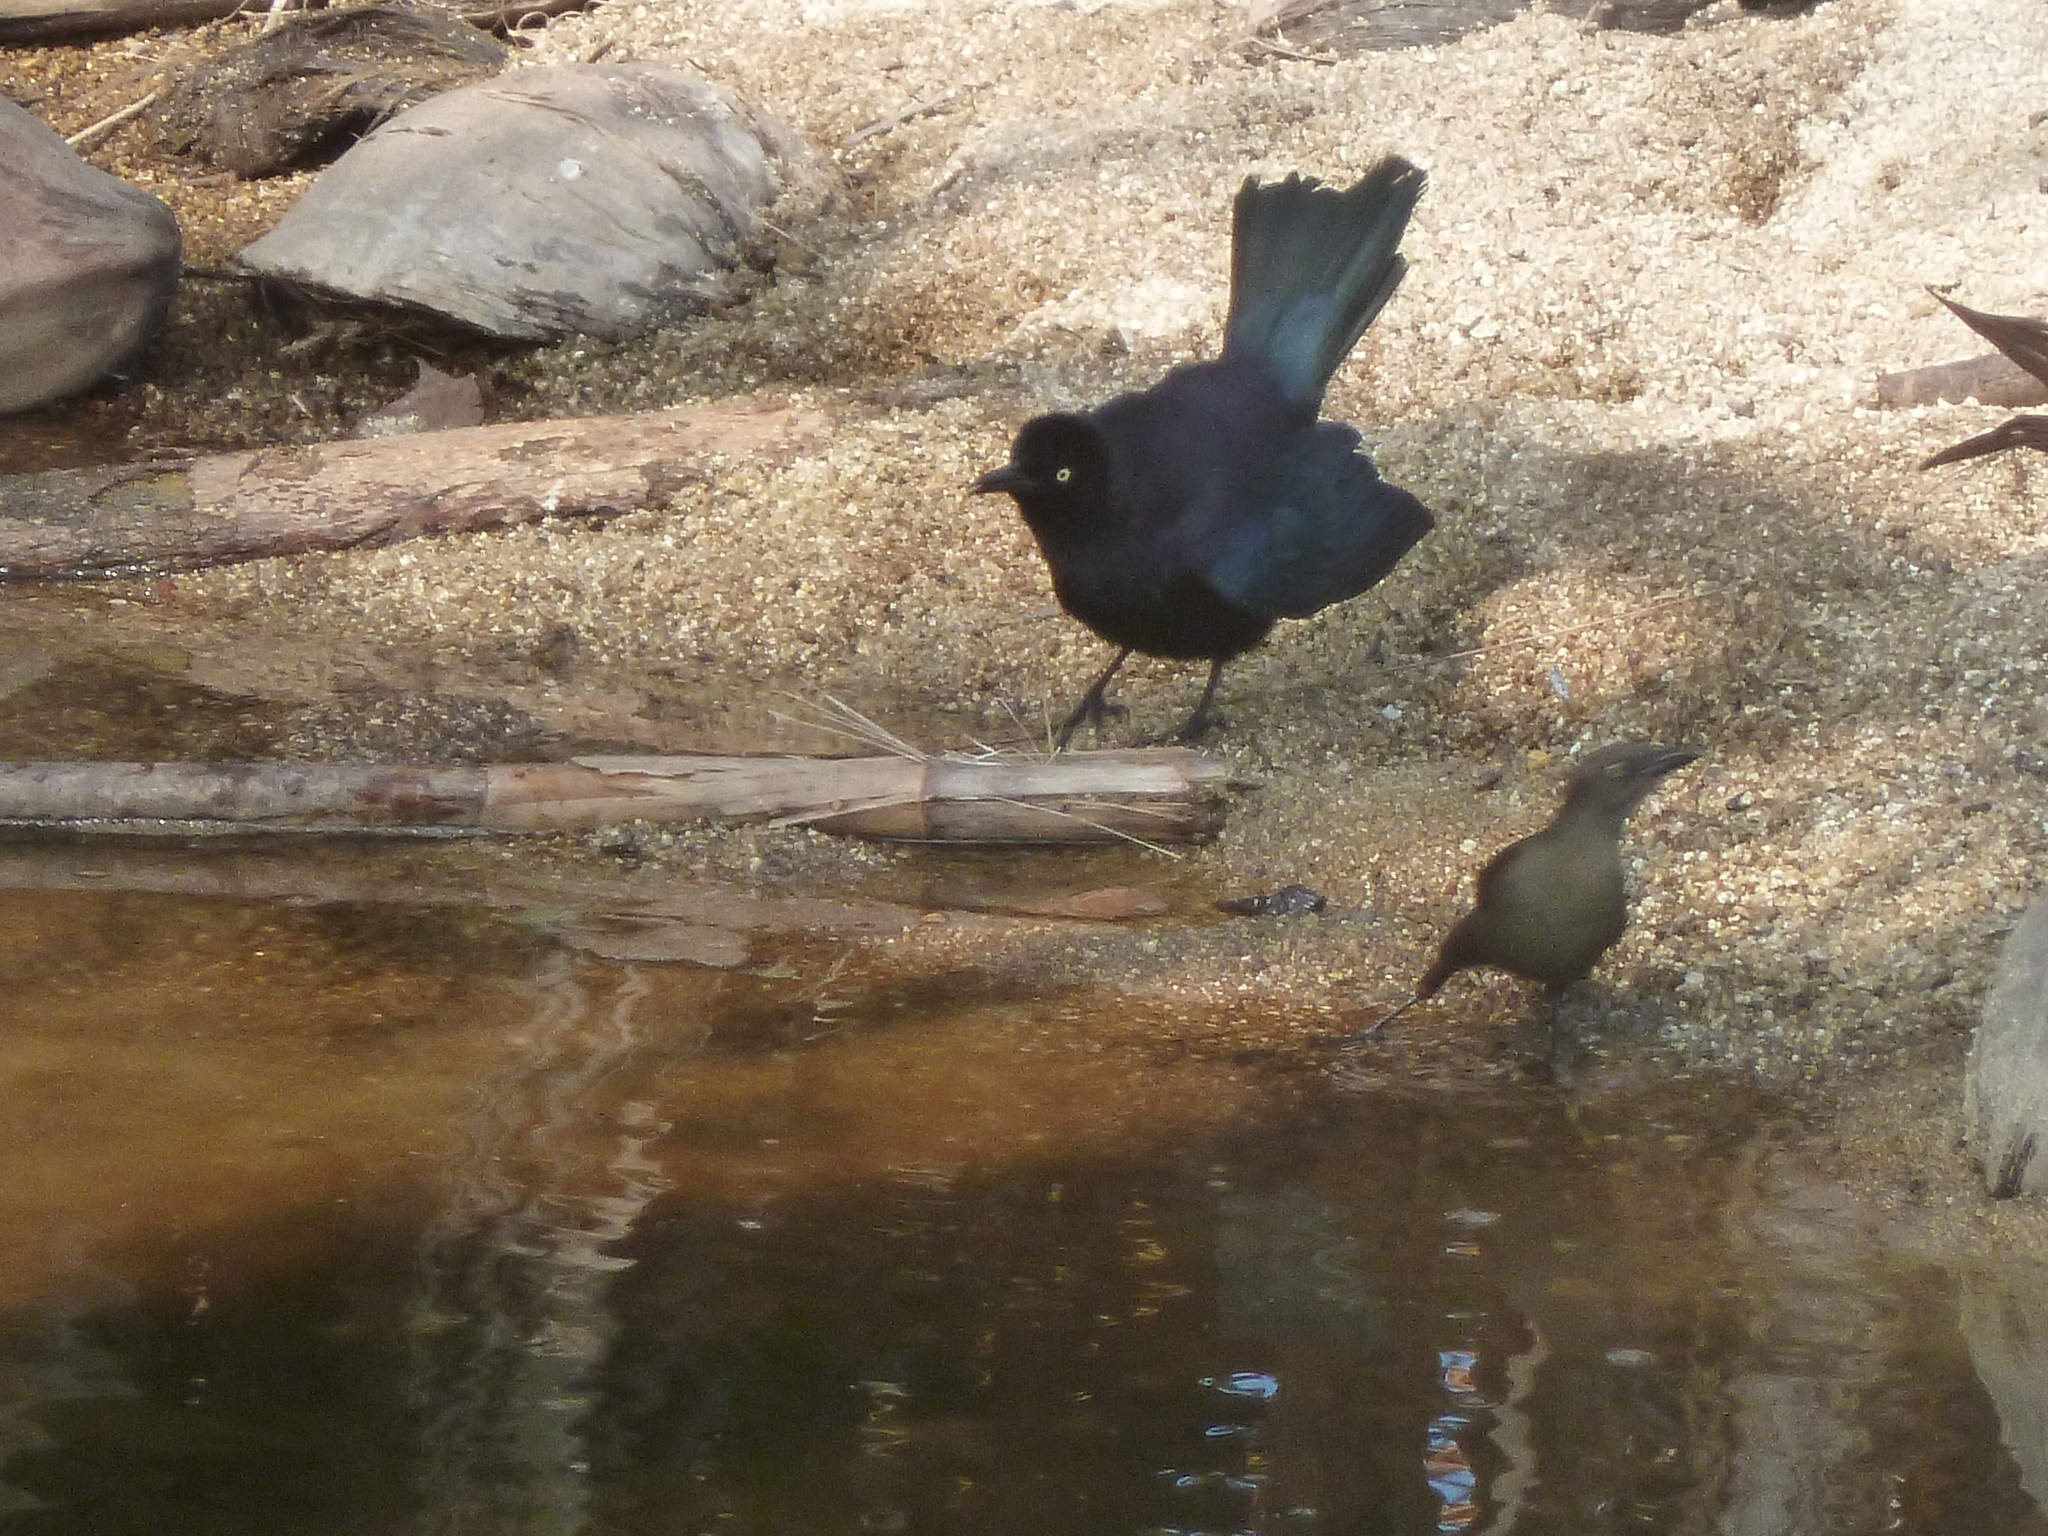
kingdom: Animalia
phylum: Chordata
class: Aves
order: Passeriformes
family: Icteridae
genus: Quiscalus
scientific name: Quiscalus lugubris
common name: Carib grackle
